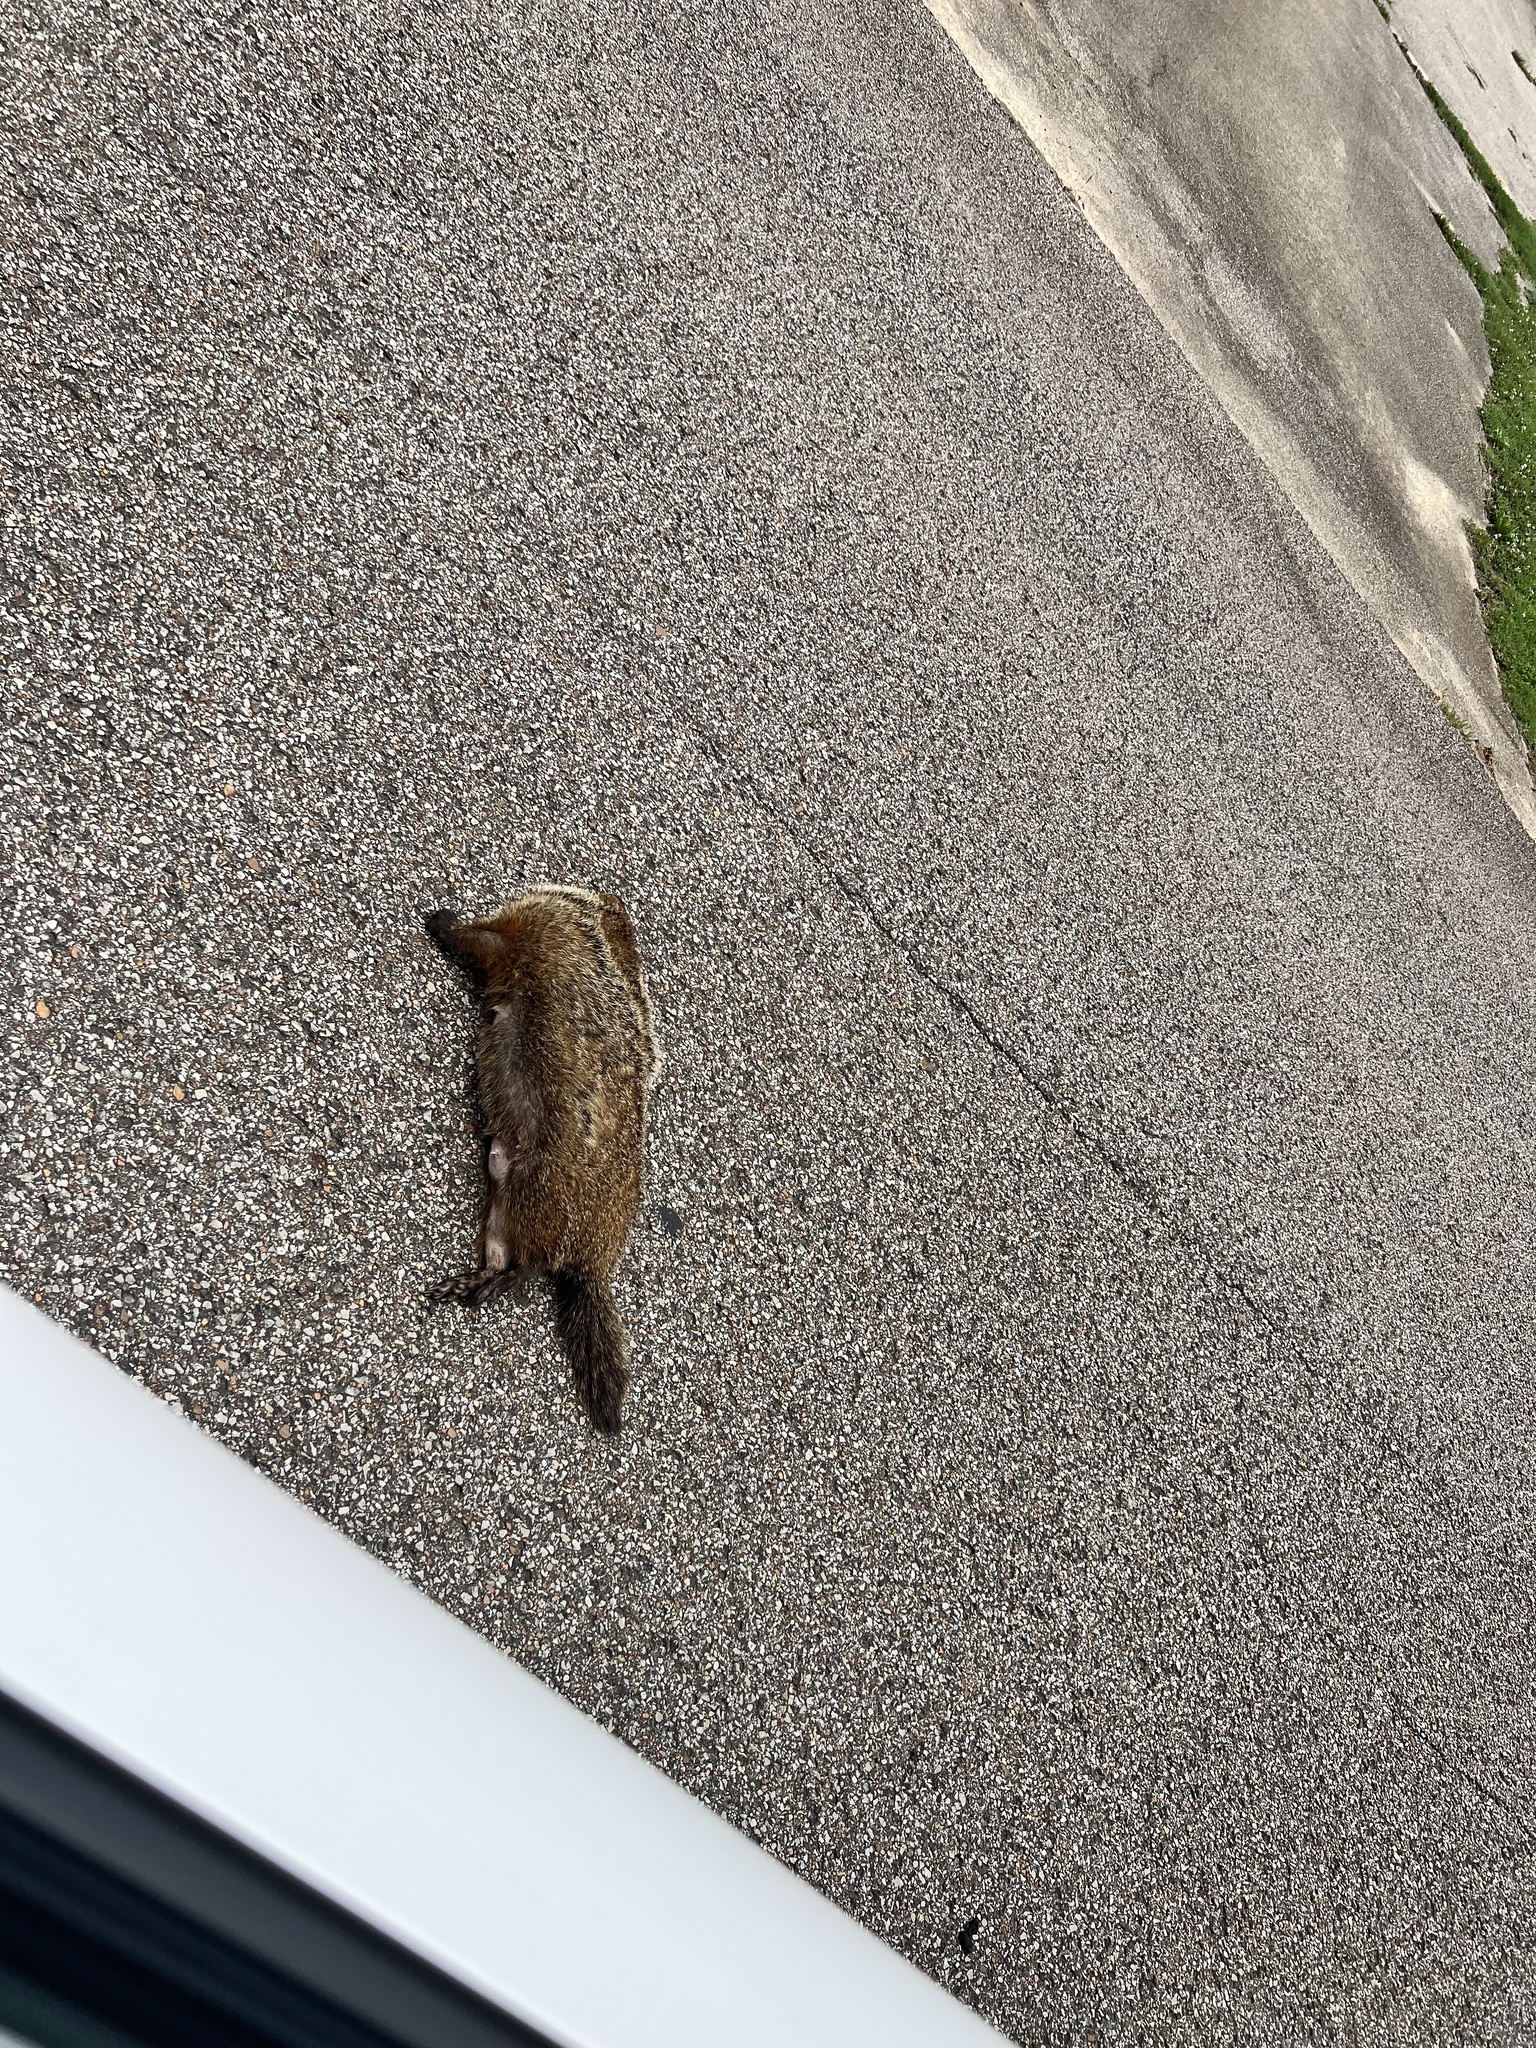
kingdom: Animalia
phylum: Chordata
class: Mammalia
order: Rodentia
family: Sciuridae
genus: Marmota
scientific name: Marmota monax
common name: Groundhog
